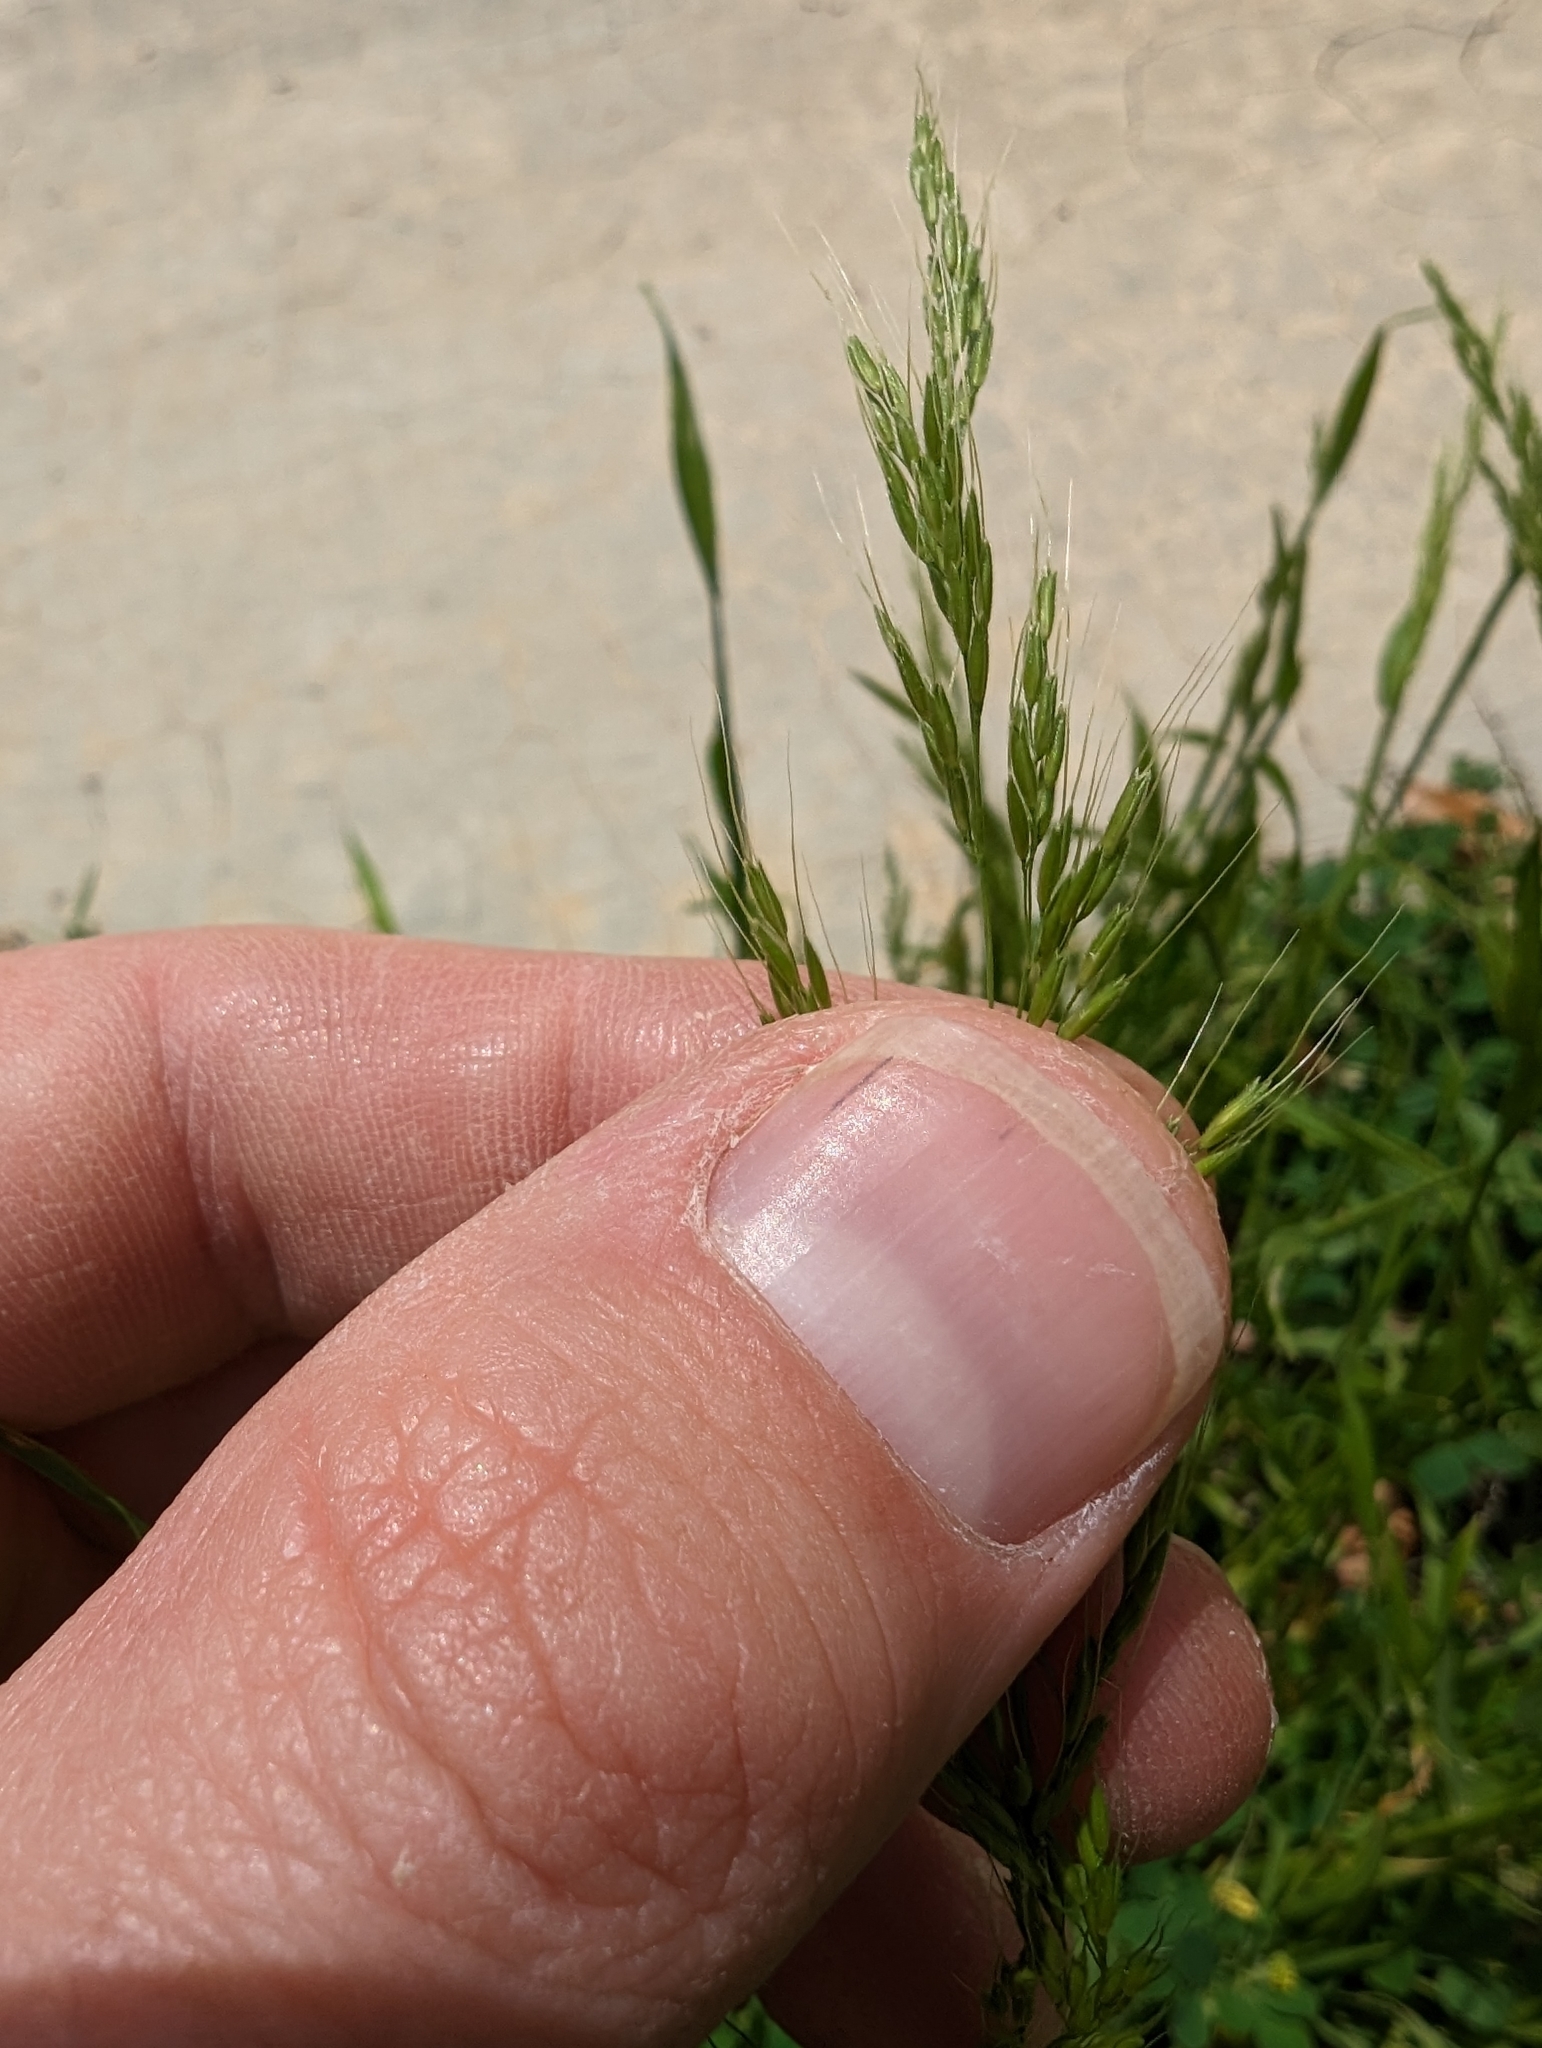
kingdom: Plantae
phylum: Tracheophyta
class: Liliopsida
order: Poales
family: Poaceae
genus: Limnodea
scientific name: Limnodea arkansana
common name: Ozark-grass
